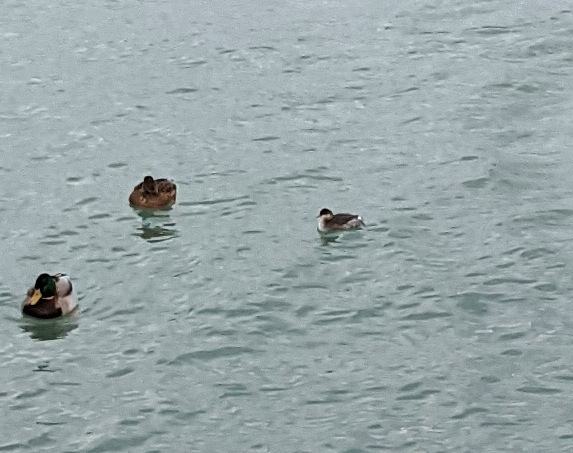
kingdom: Animalia
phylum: Chordata
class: Aves
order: Podicipediformes
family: Podicipedidae
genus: Podiceps
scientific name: Podiceps nigricollis
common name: Black-necked grebe
